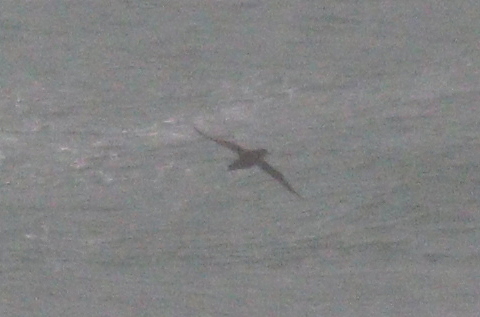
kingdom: Animalia
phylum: Chordata
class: Aves
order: Procellariiformes
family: Procellariidae
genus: Puffinus
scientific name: Puffinus mauretanicus
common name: Balearic shearwater
